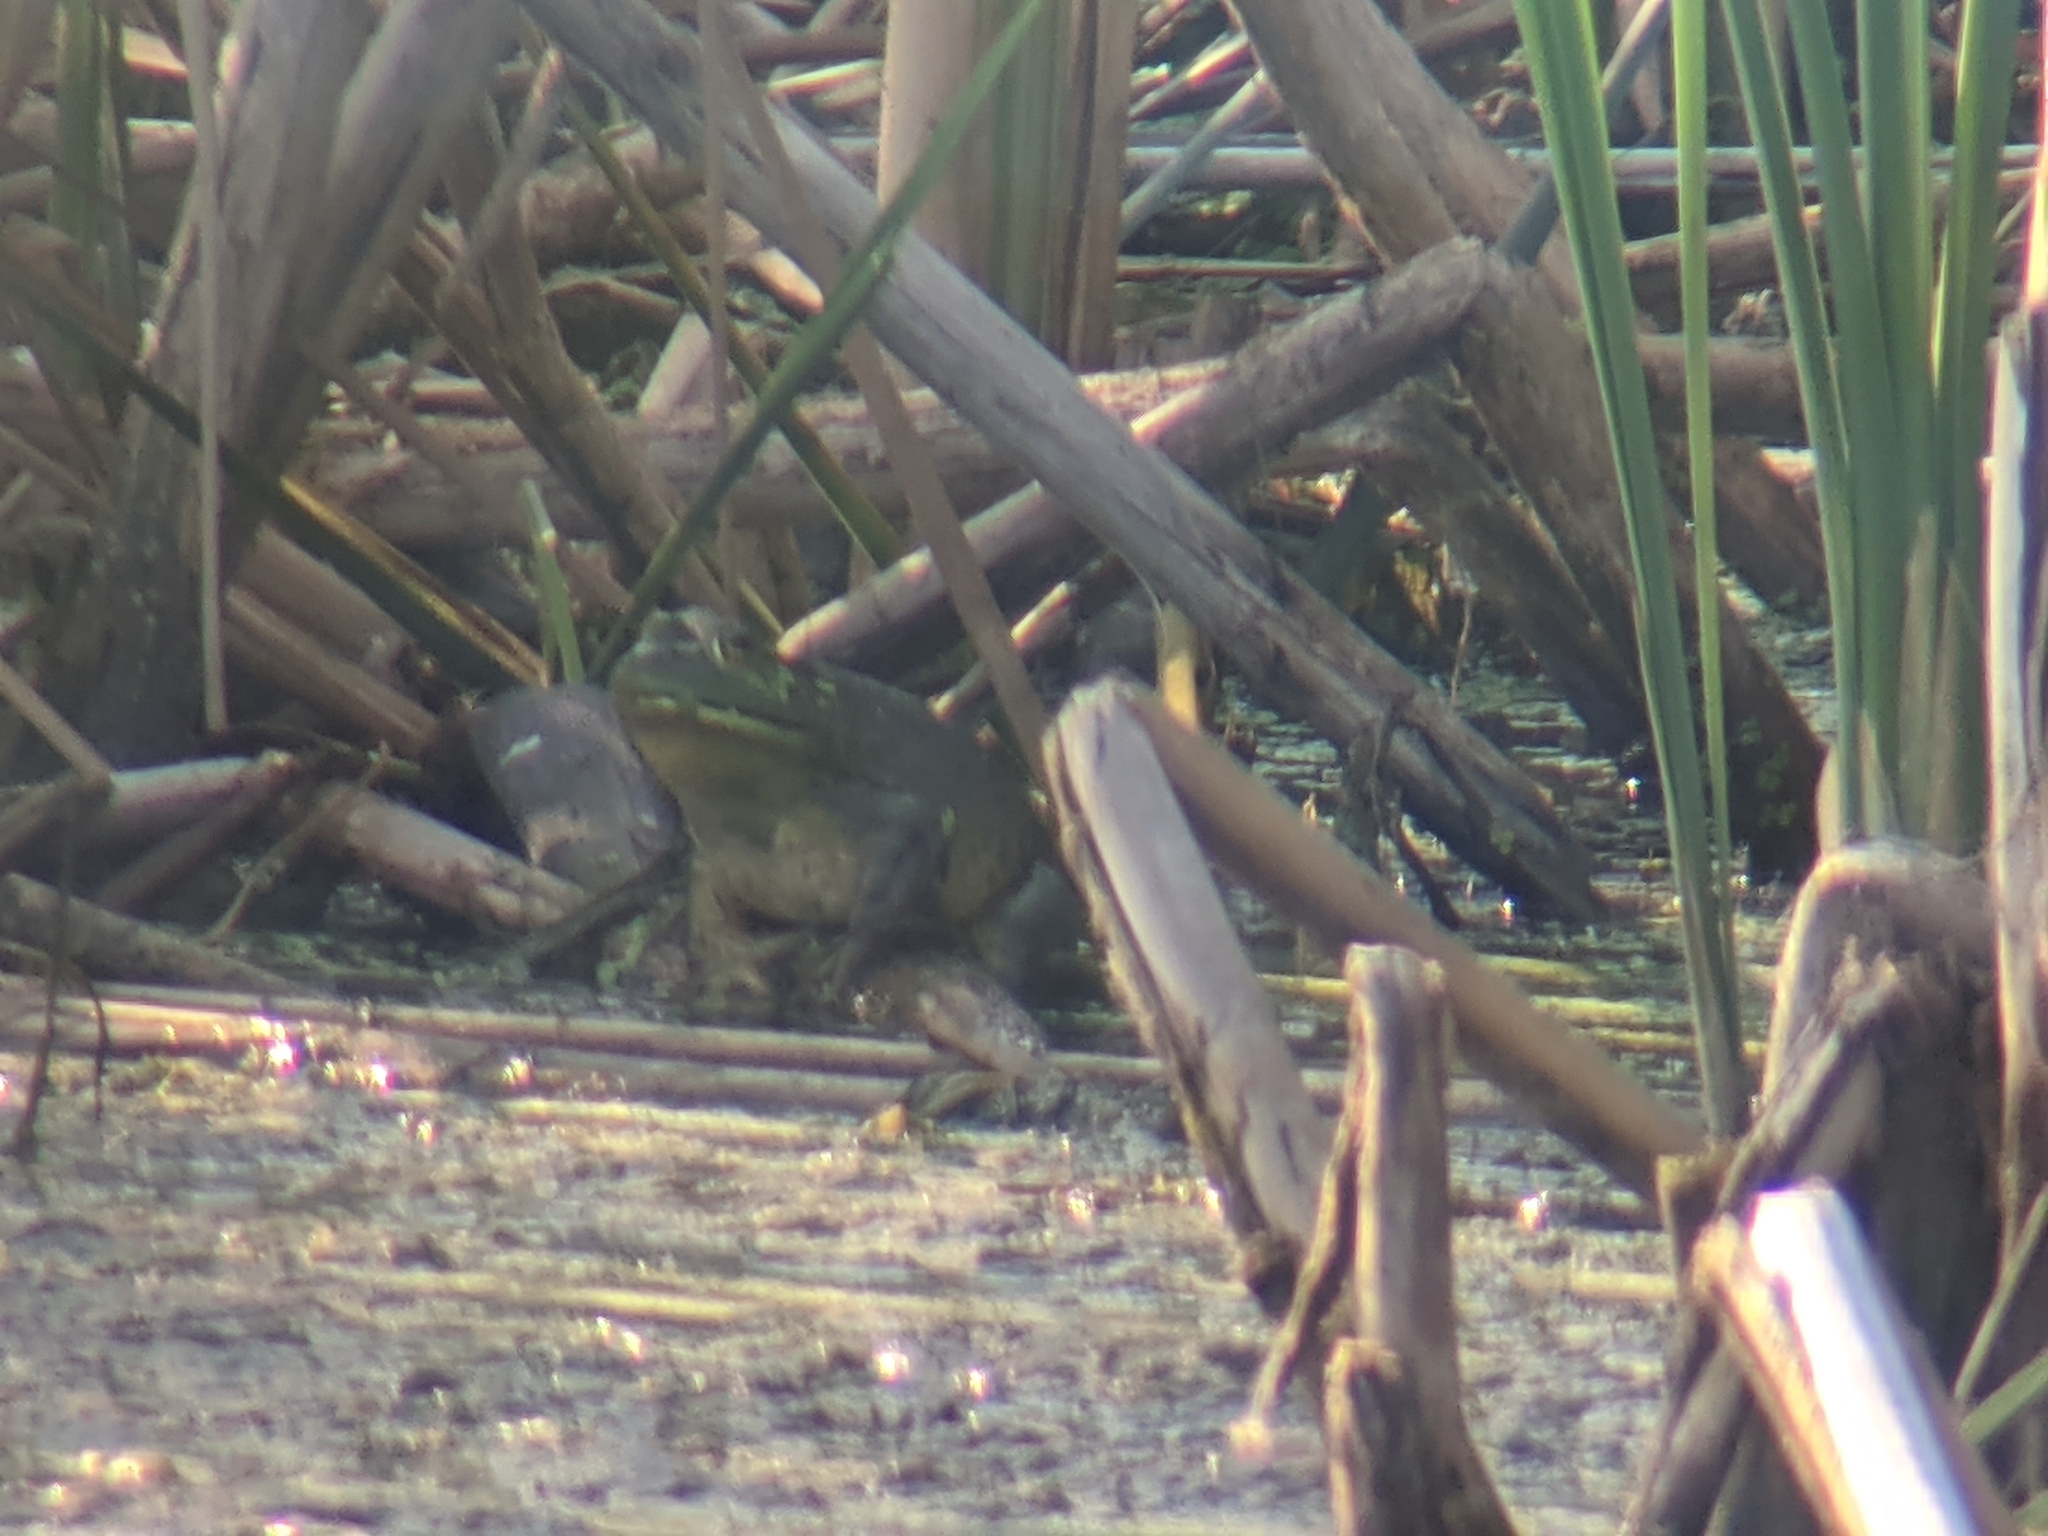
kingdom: Animalia
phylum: Chordata
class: Amphibia
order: Anura
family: Ranidae
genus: Lithobates
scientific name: Lithobates catesbeianus
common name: American bullfrog
